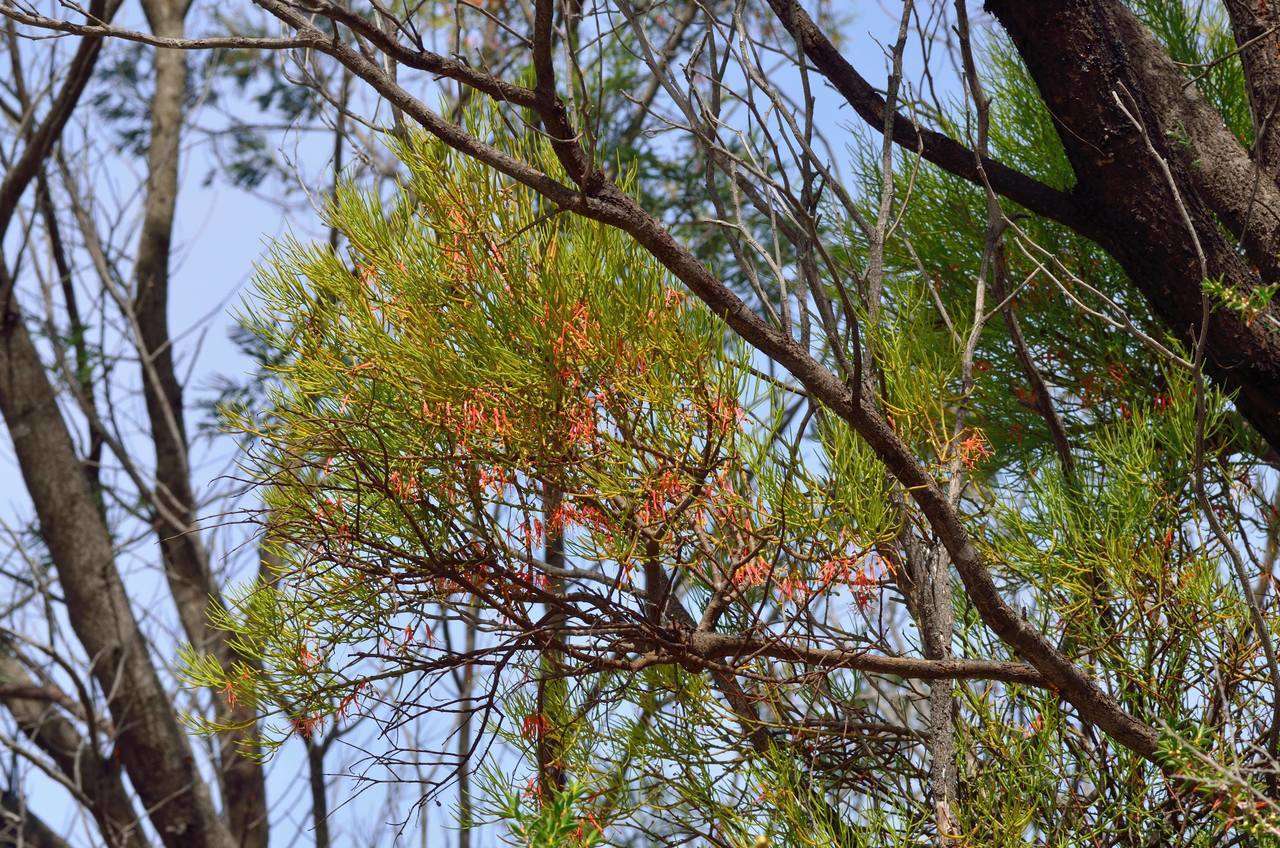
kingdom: Plantae
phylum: Tracheophyta
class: Magnoliopsida
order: Santalales
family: Loranthaceae
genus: Amyema
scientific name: Amyema preissii
